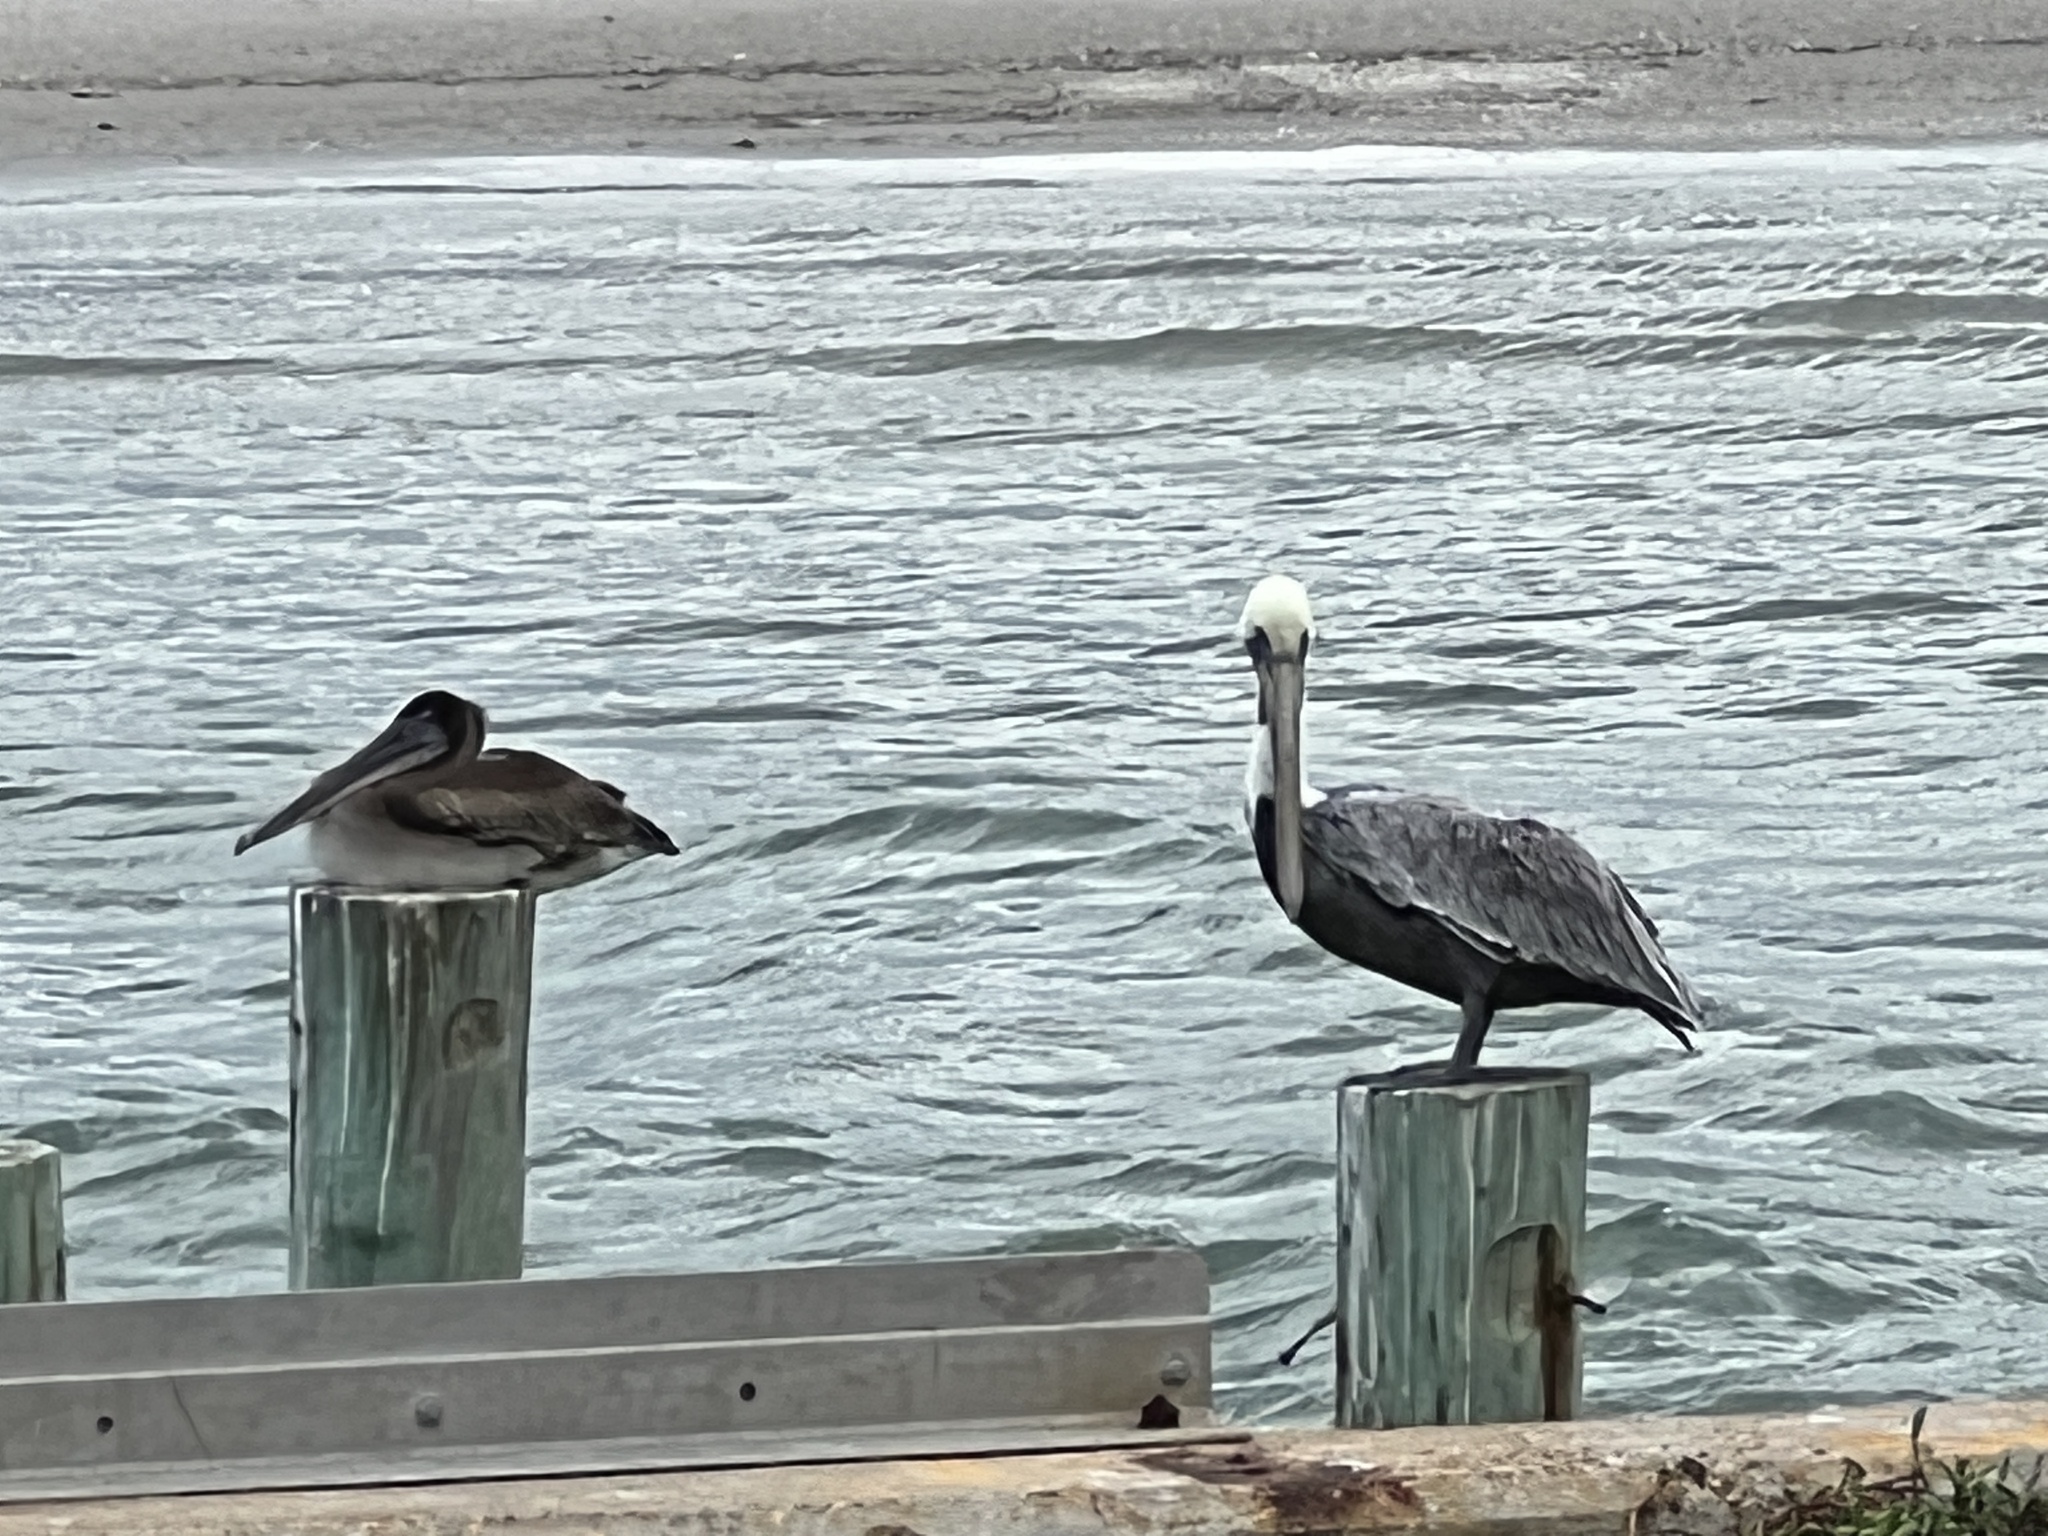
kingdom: Animalia
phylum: Chordata
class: Aves
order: Pelecaniformes
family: Pelecanidae
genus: Pelecanus
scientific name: Pelecanus occidentalis
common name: Brown pelican
